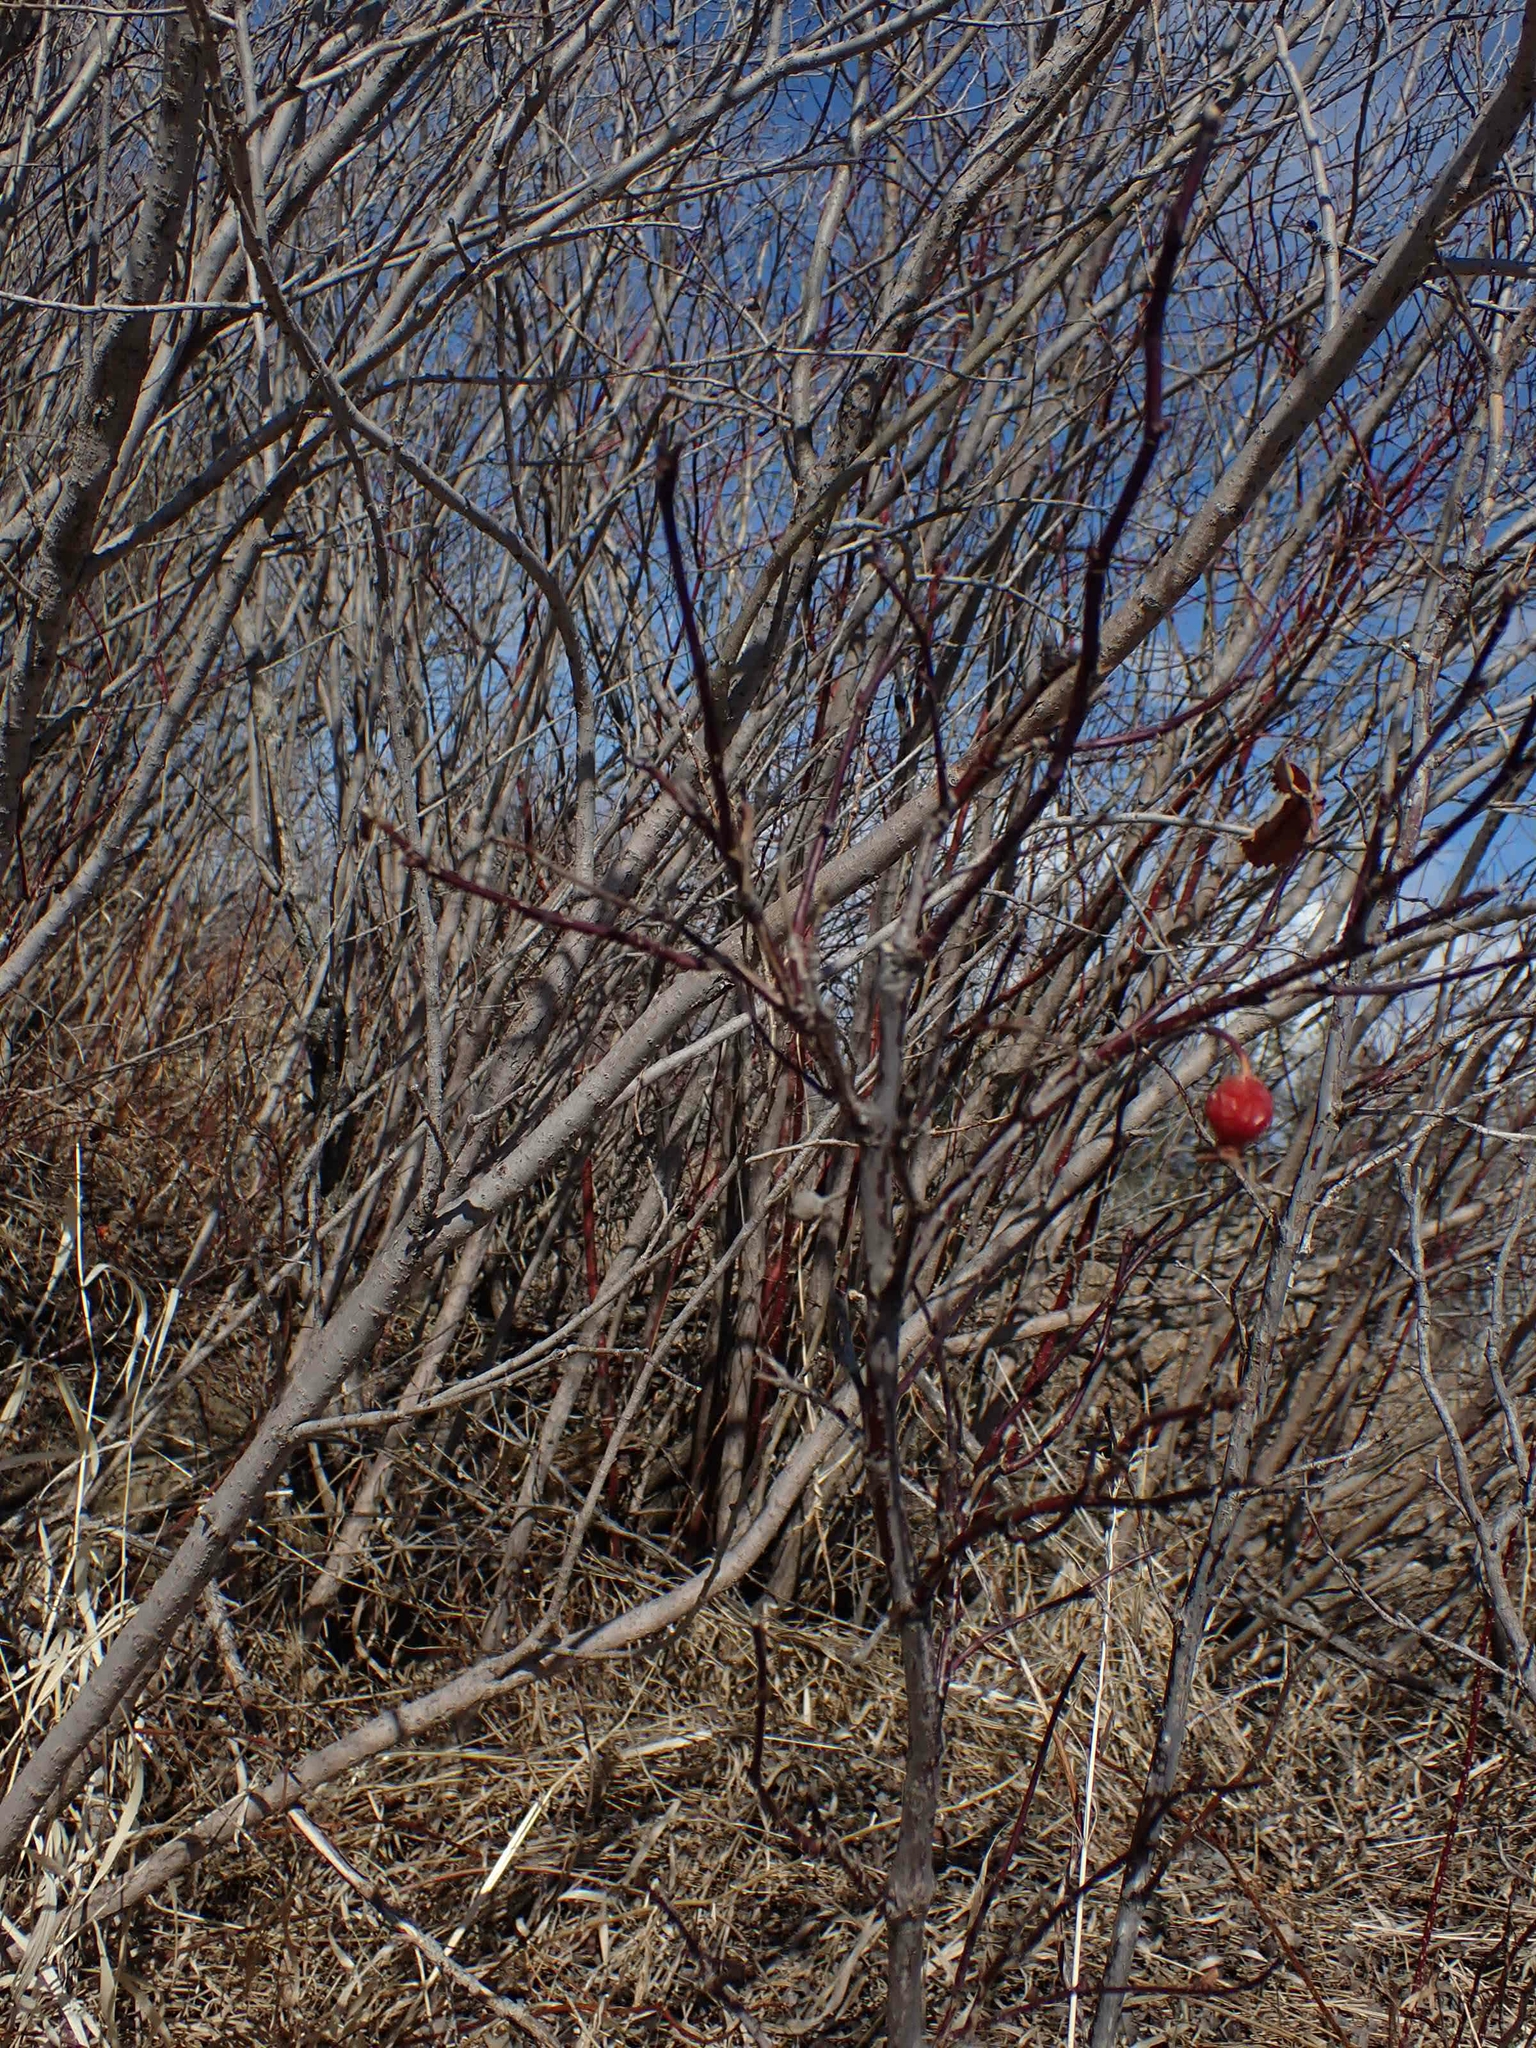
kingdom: Plantae
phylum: Tracheophyta
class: Magnoliopsida
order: Rosales
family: Rosaceae
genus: Rosa
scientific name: Rosa acicularis
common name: Prickly rose
